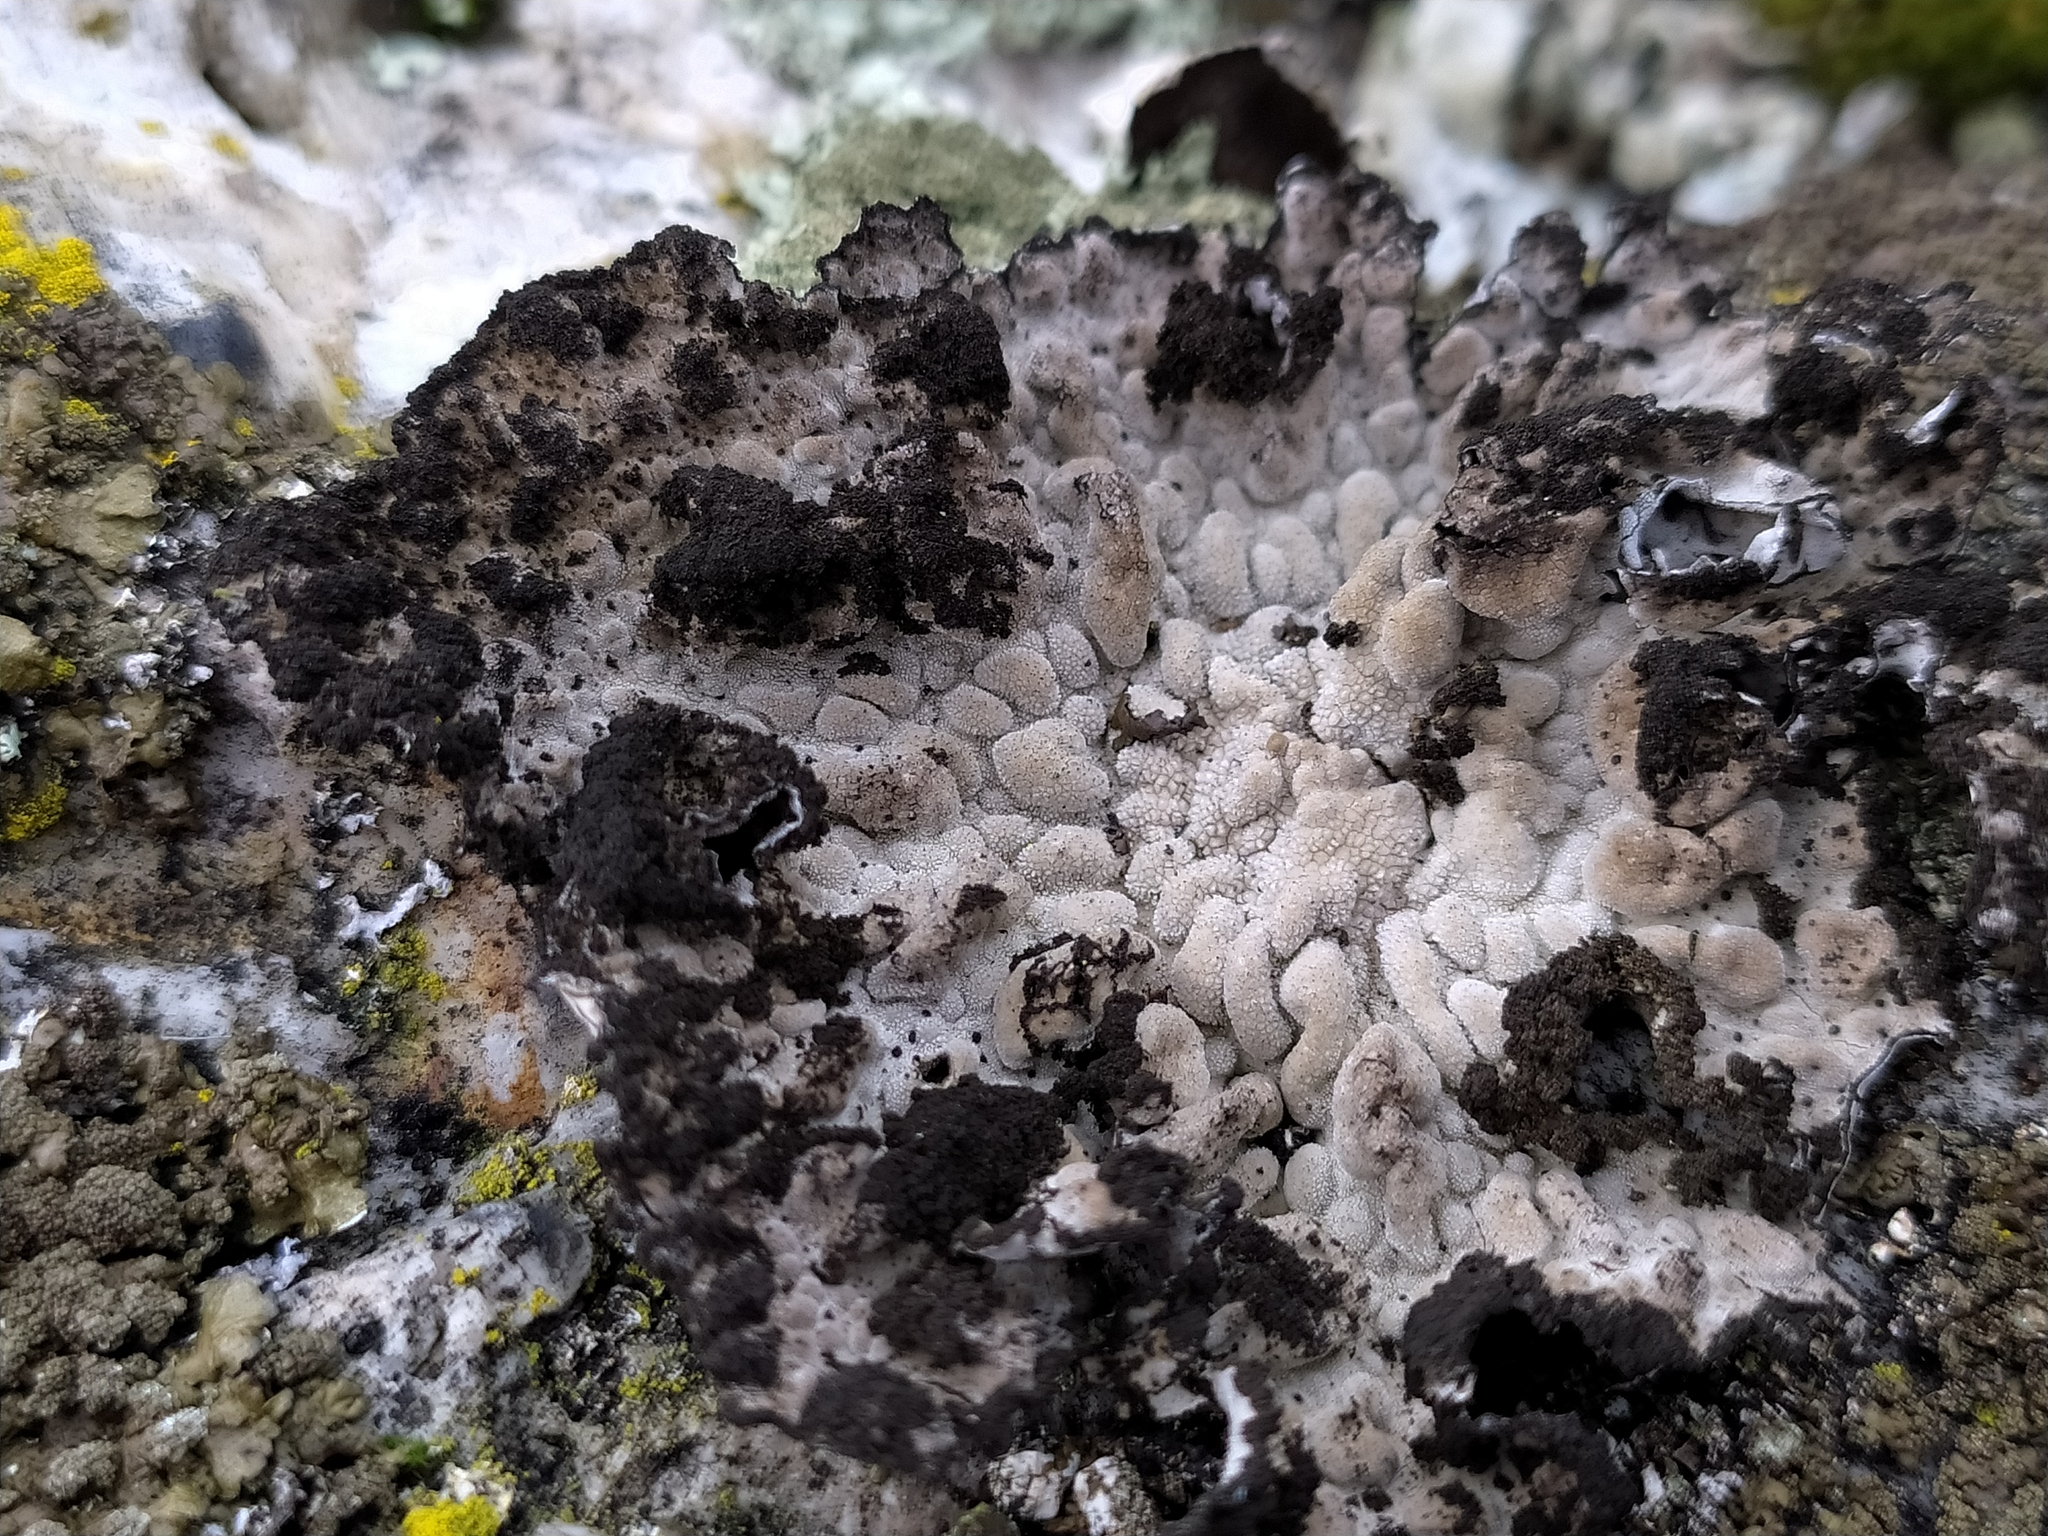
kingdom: Fungi
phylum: Ascomycota
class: Lecanoromycetes
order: Umbilicariales
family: Umbilicariaceae
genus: Lasallia
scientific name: Lasallia pustulata
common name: Blistered toadskin lichen
